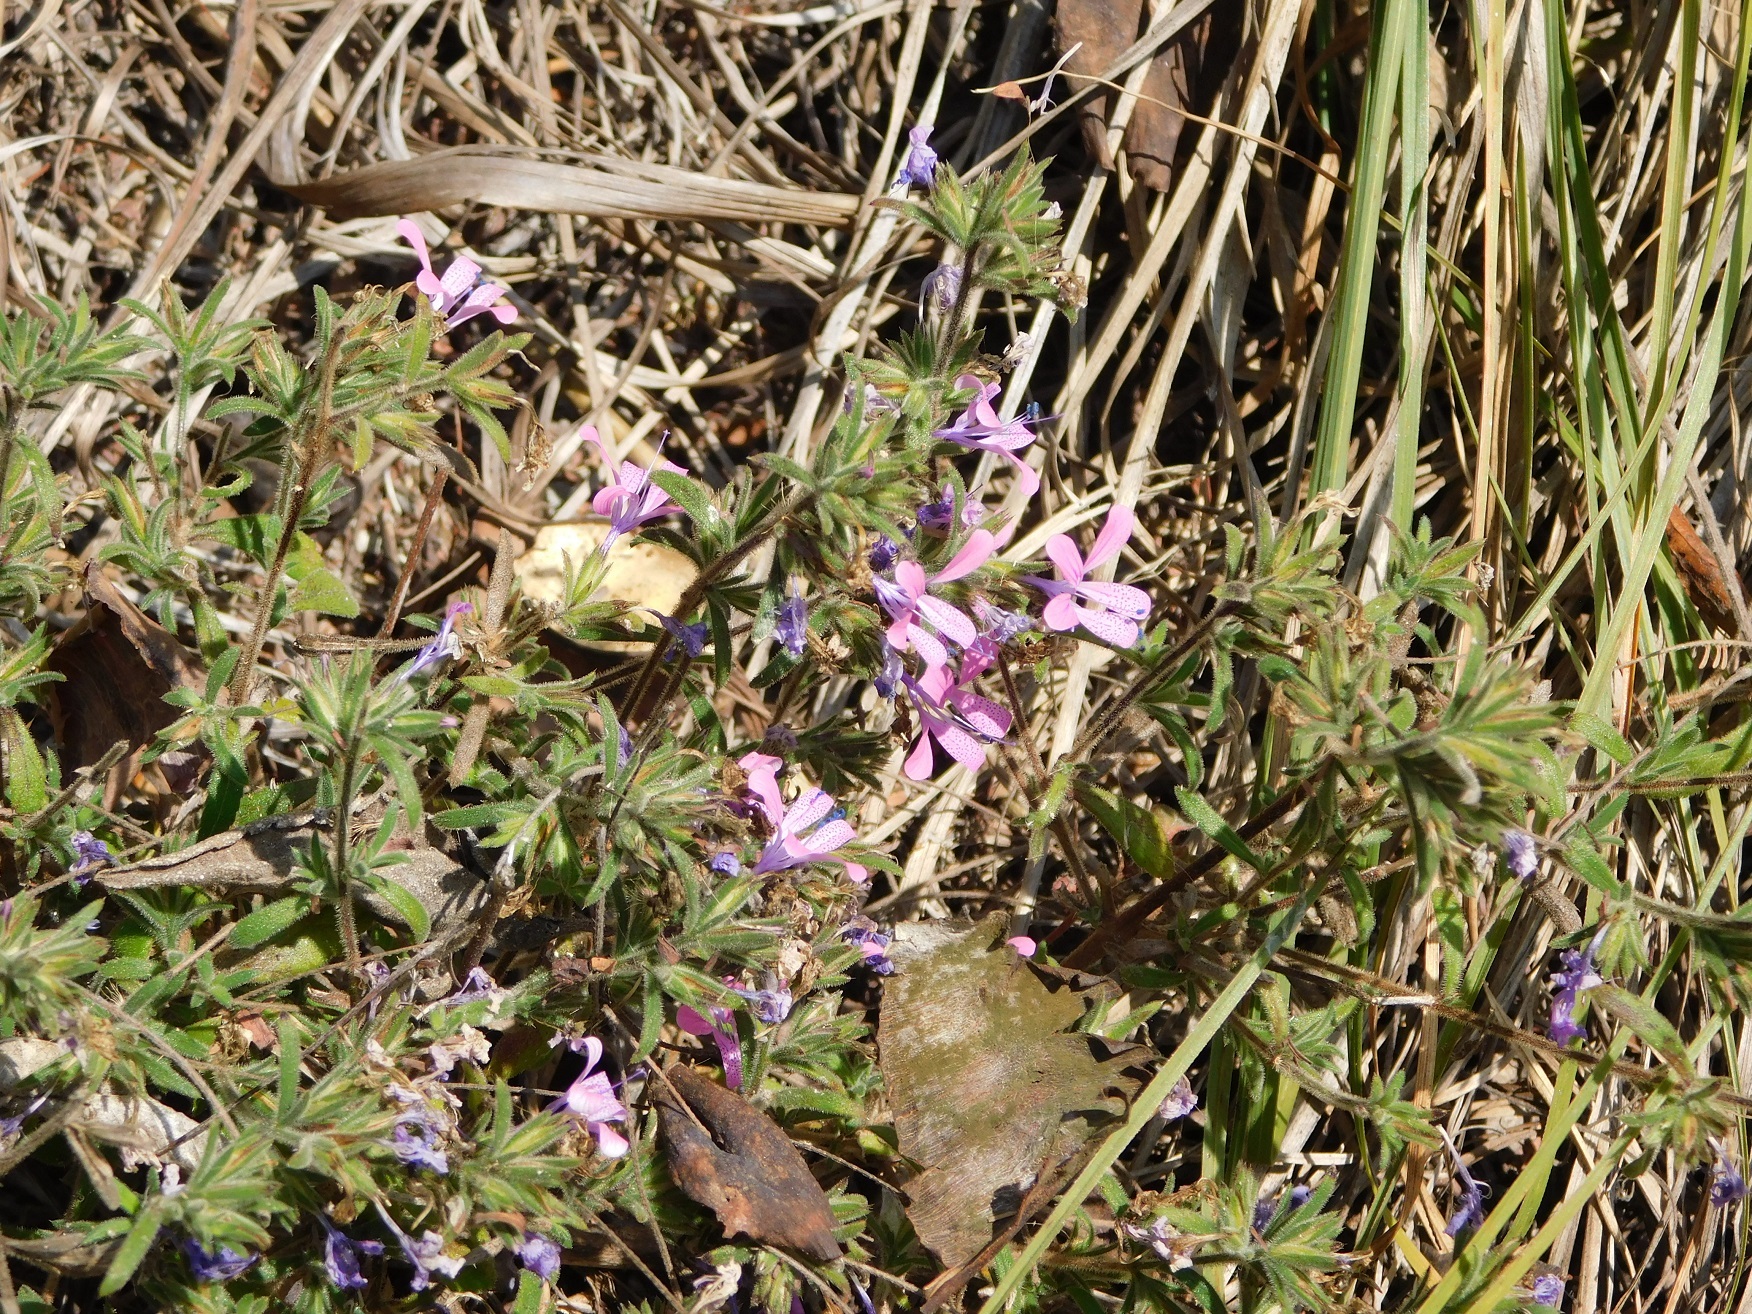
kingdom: Plantae
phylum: Tracheophyta
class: Magnoliopsida
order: Ericales
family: Polemoniaceae
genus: Loeselia
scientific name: Loeselia glandulosa
